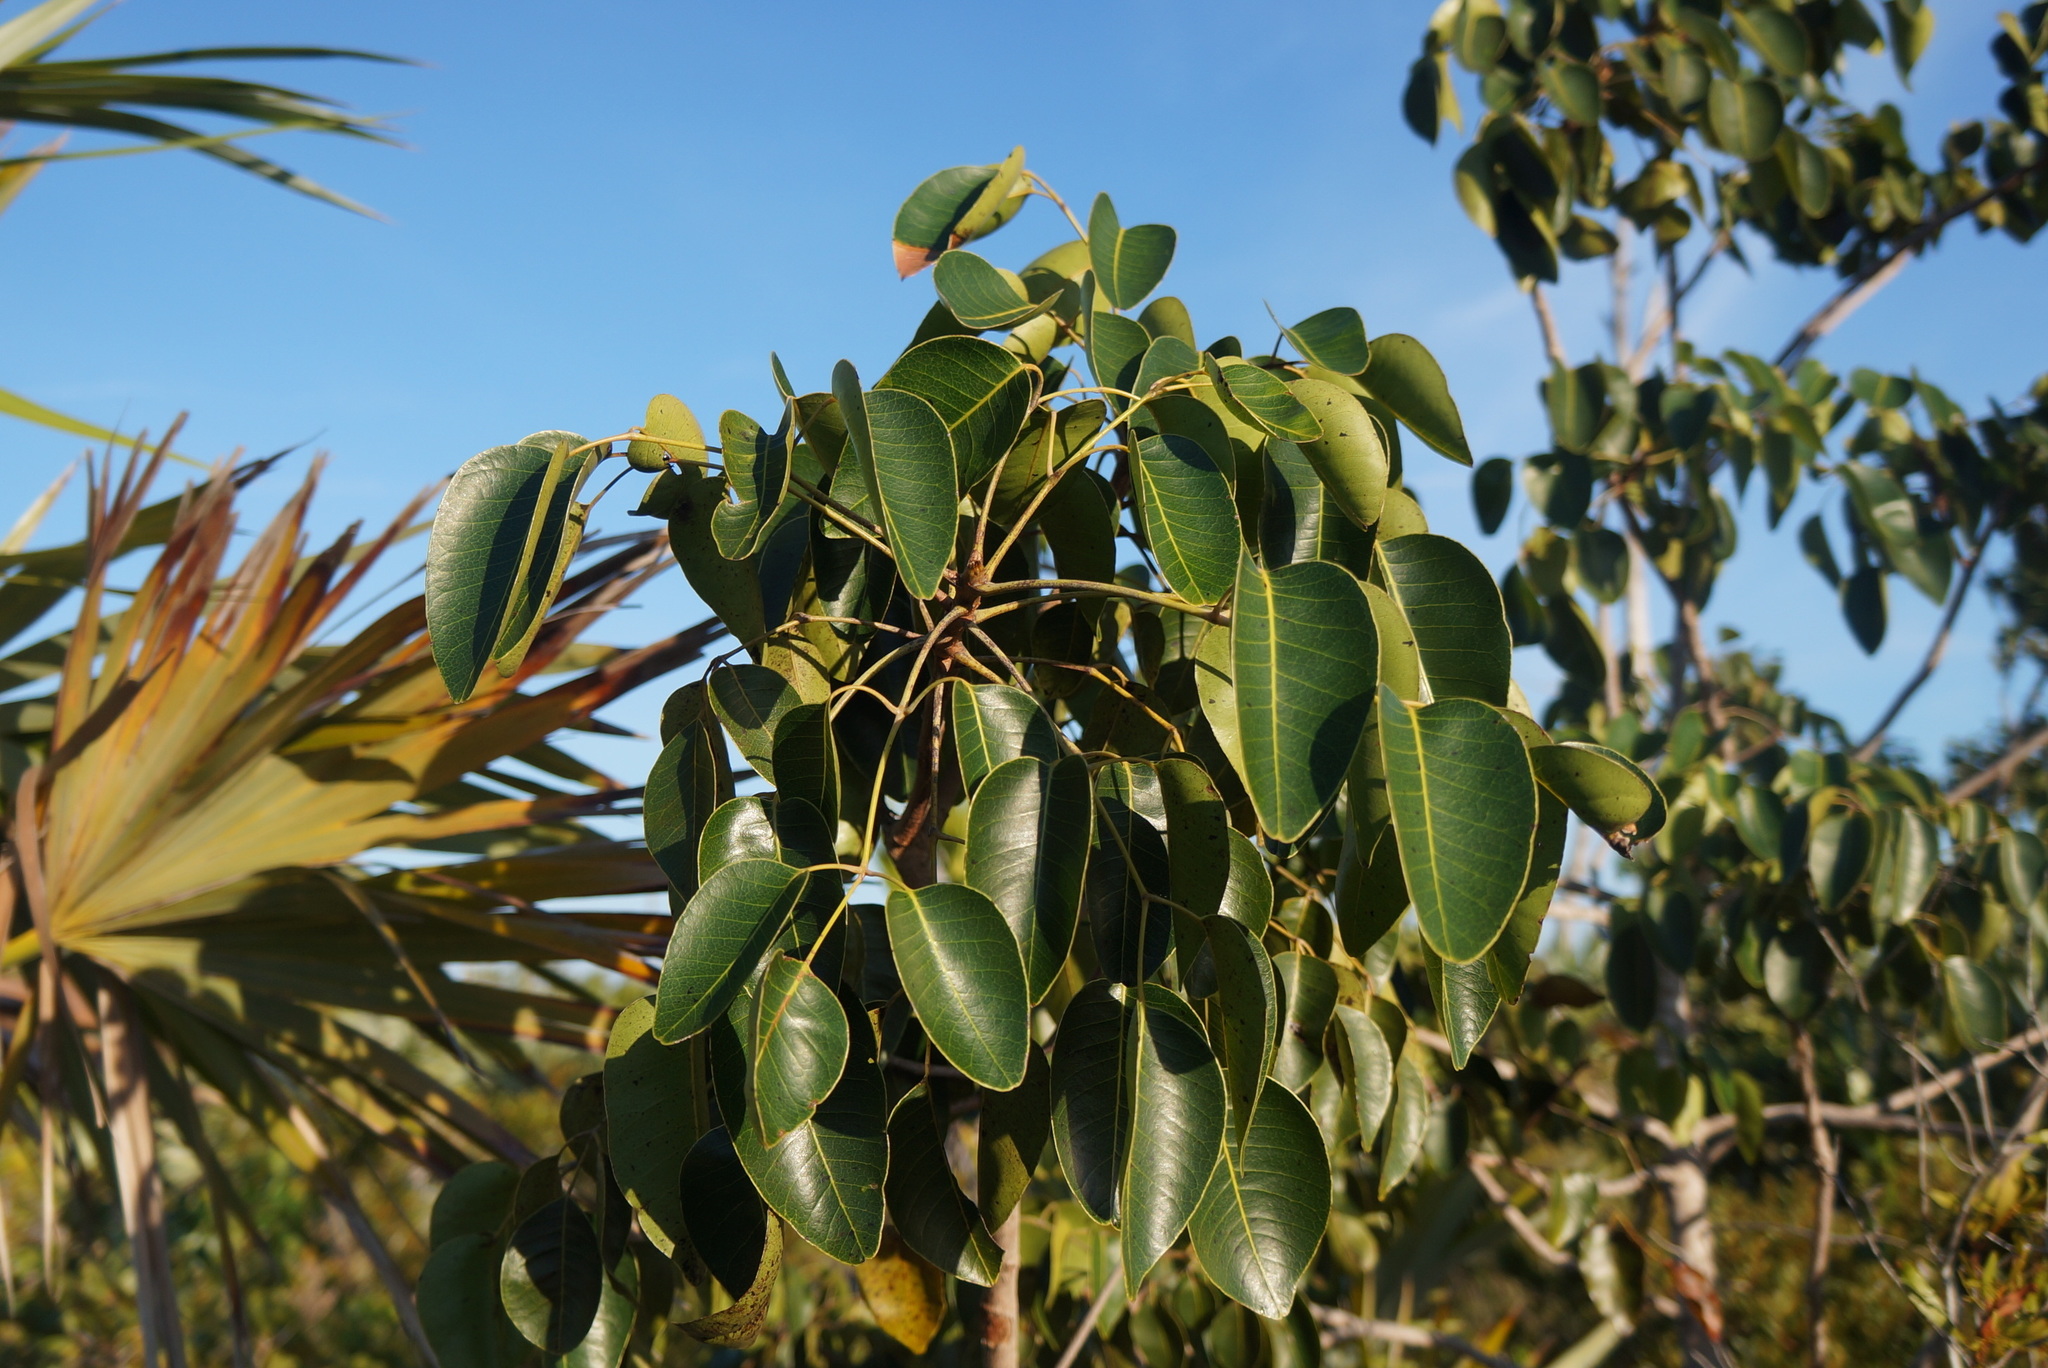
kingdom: Plantae
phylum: Tracheophyta
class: Magnoliopsida
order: Sapindales
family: Anacardiaceae
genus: Metopium
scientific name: Metopium toxiferum
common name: Florida poisontree
